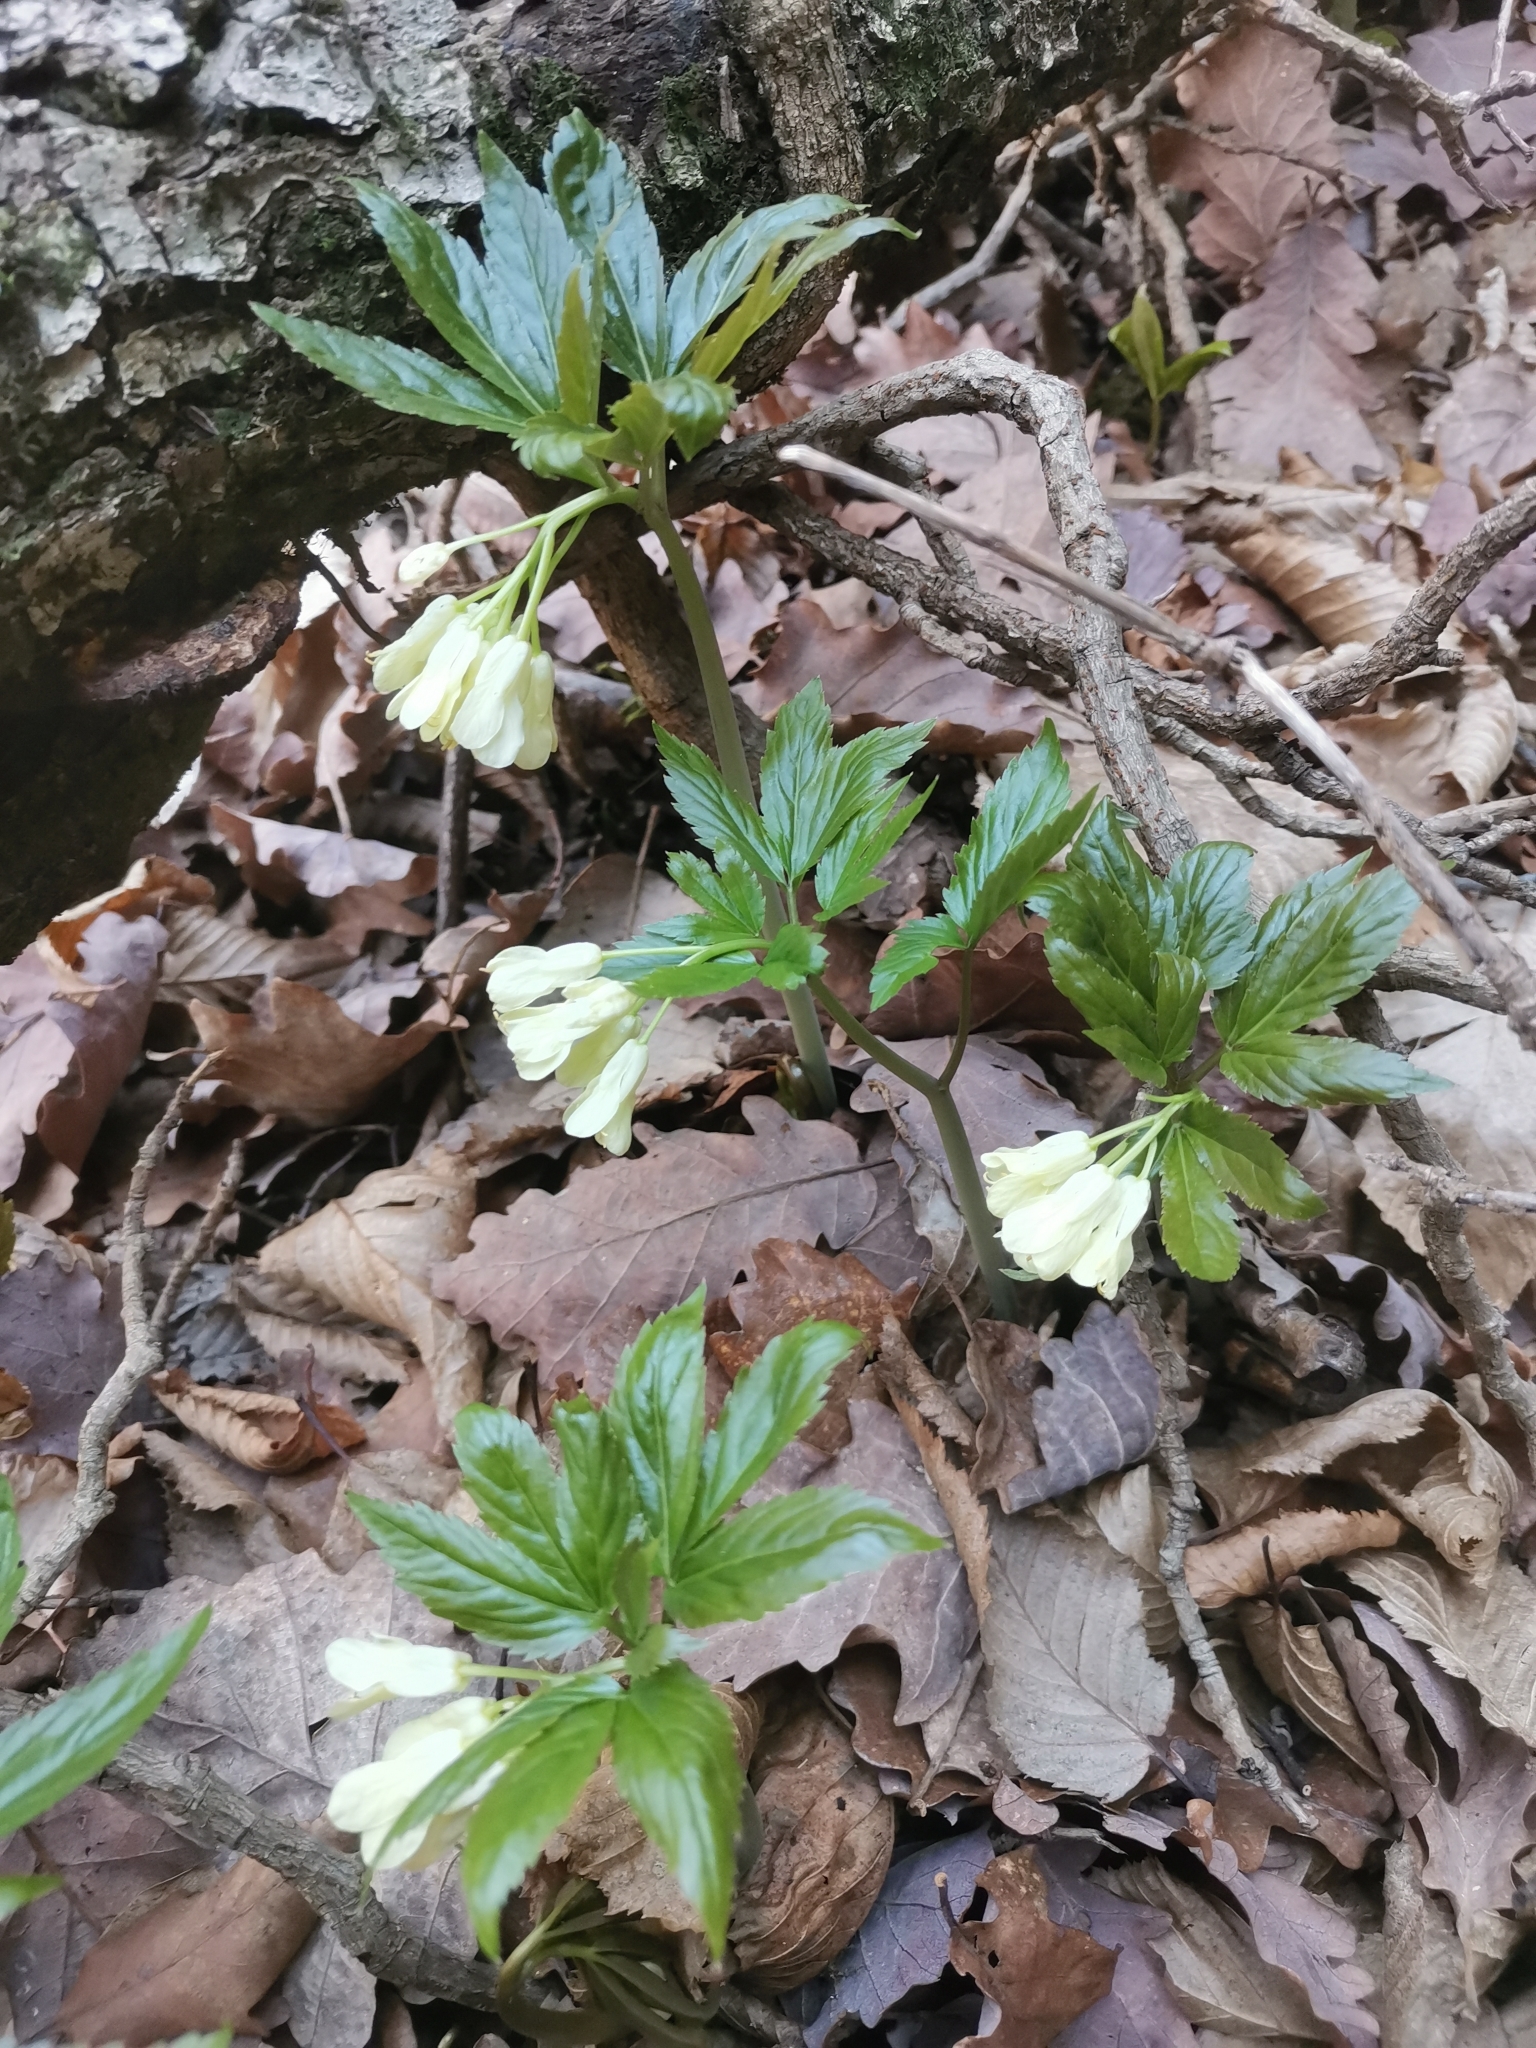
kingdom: Plantae
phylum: Tracheophyta
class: Magnoliopsida
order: Brassicales
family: Brassicaceae
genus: Cardamine
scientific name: Cardamine enneaphyllos
